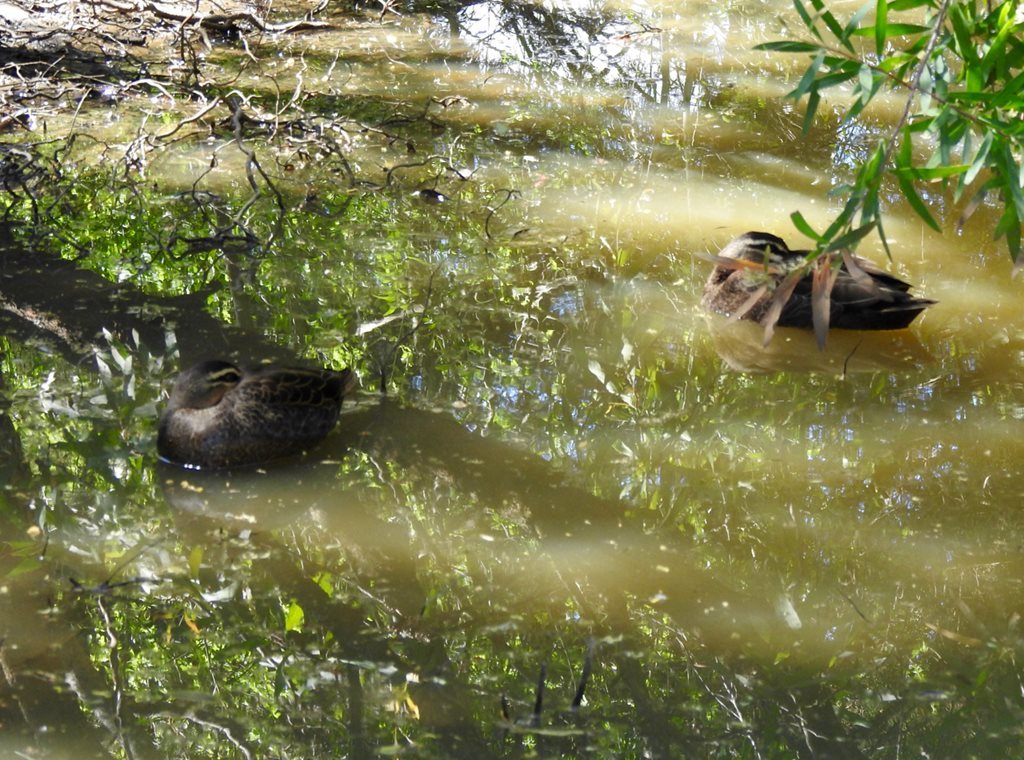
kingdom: Animalia
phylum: Chordata
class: Aves
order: Anseriformes
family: Anatidae
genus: Anas
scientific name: Anas superciliosa
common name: Pacific black duck
